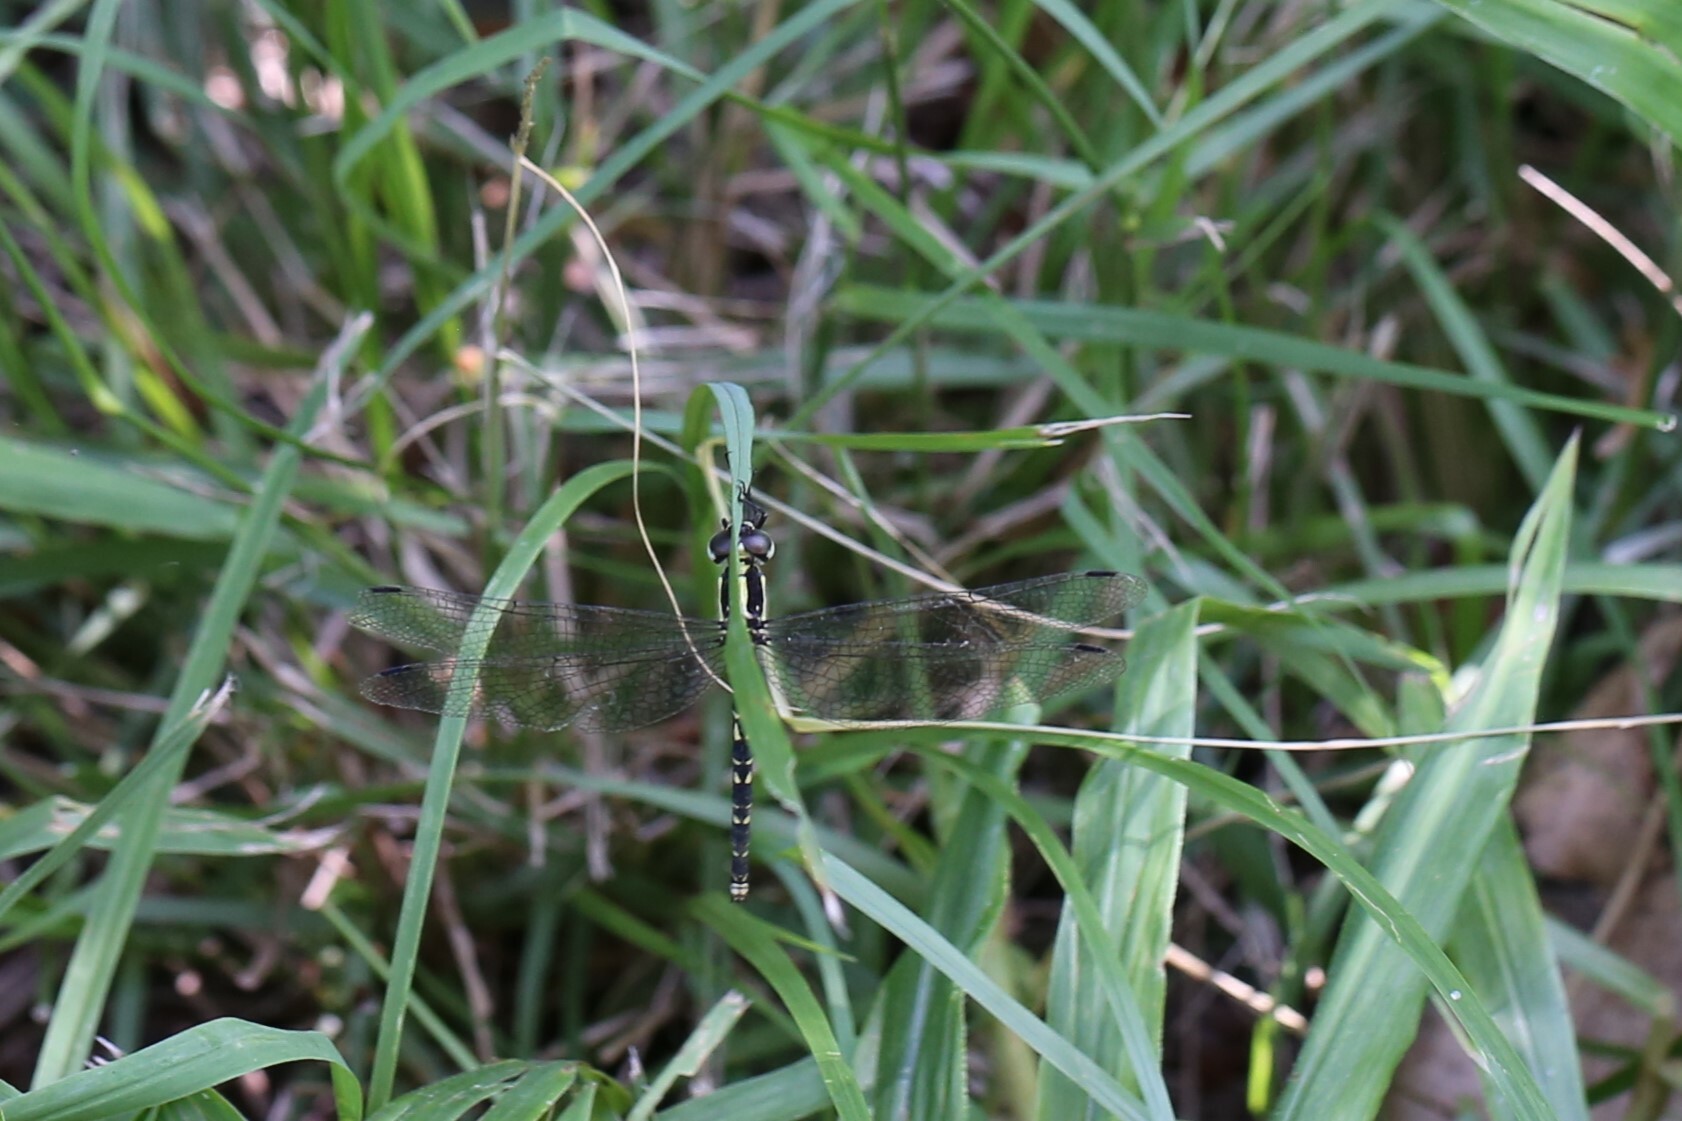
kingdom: Animalia
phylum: Arthropoda
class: Insecta
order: Odonata
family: Synthemistidae
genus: Choristhemis
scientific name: Choristhemis flavoterminata
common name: Yellow-tipped tigertail
